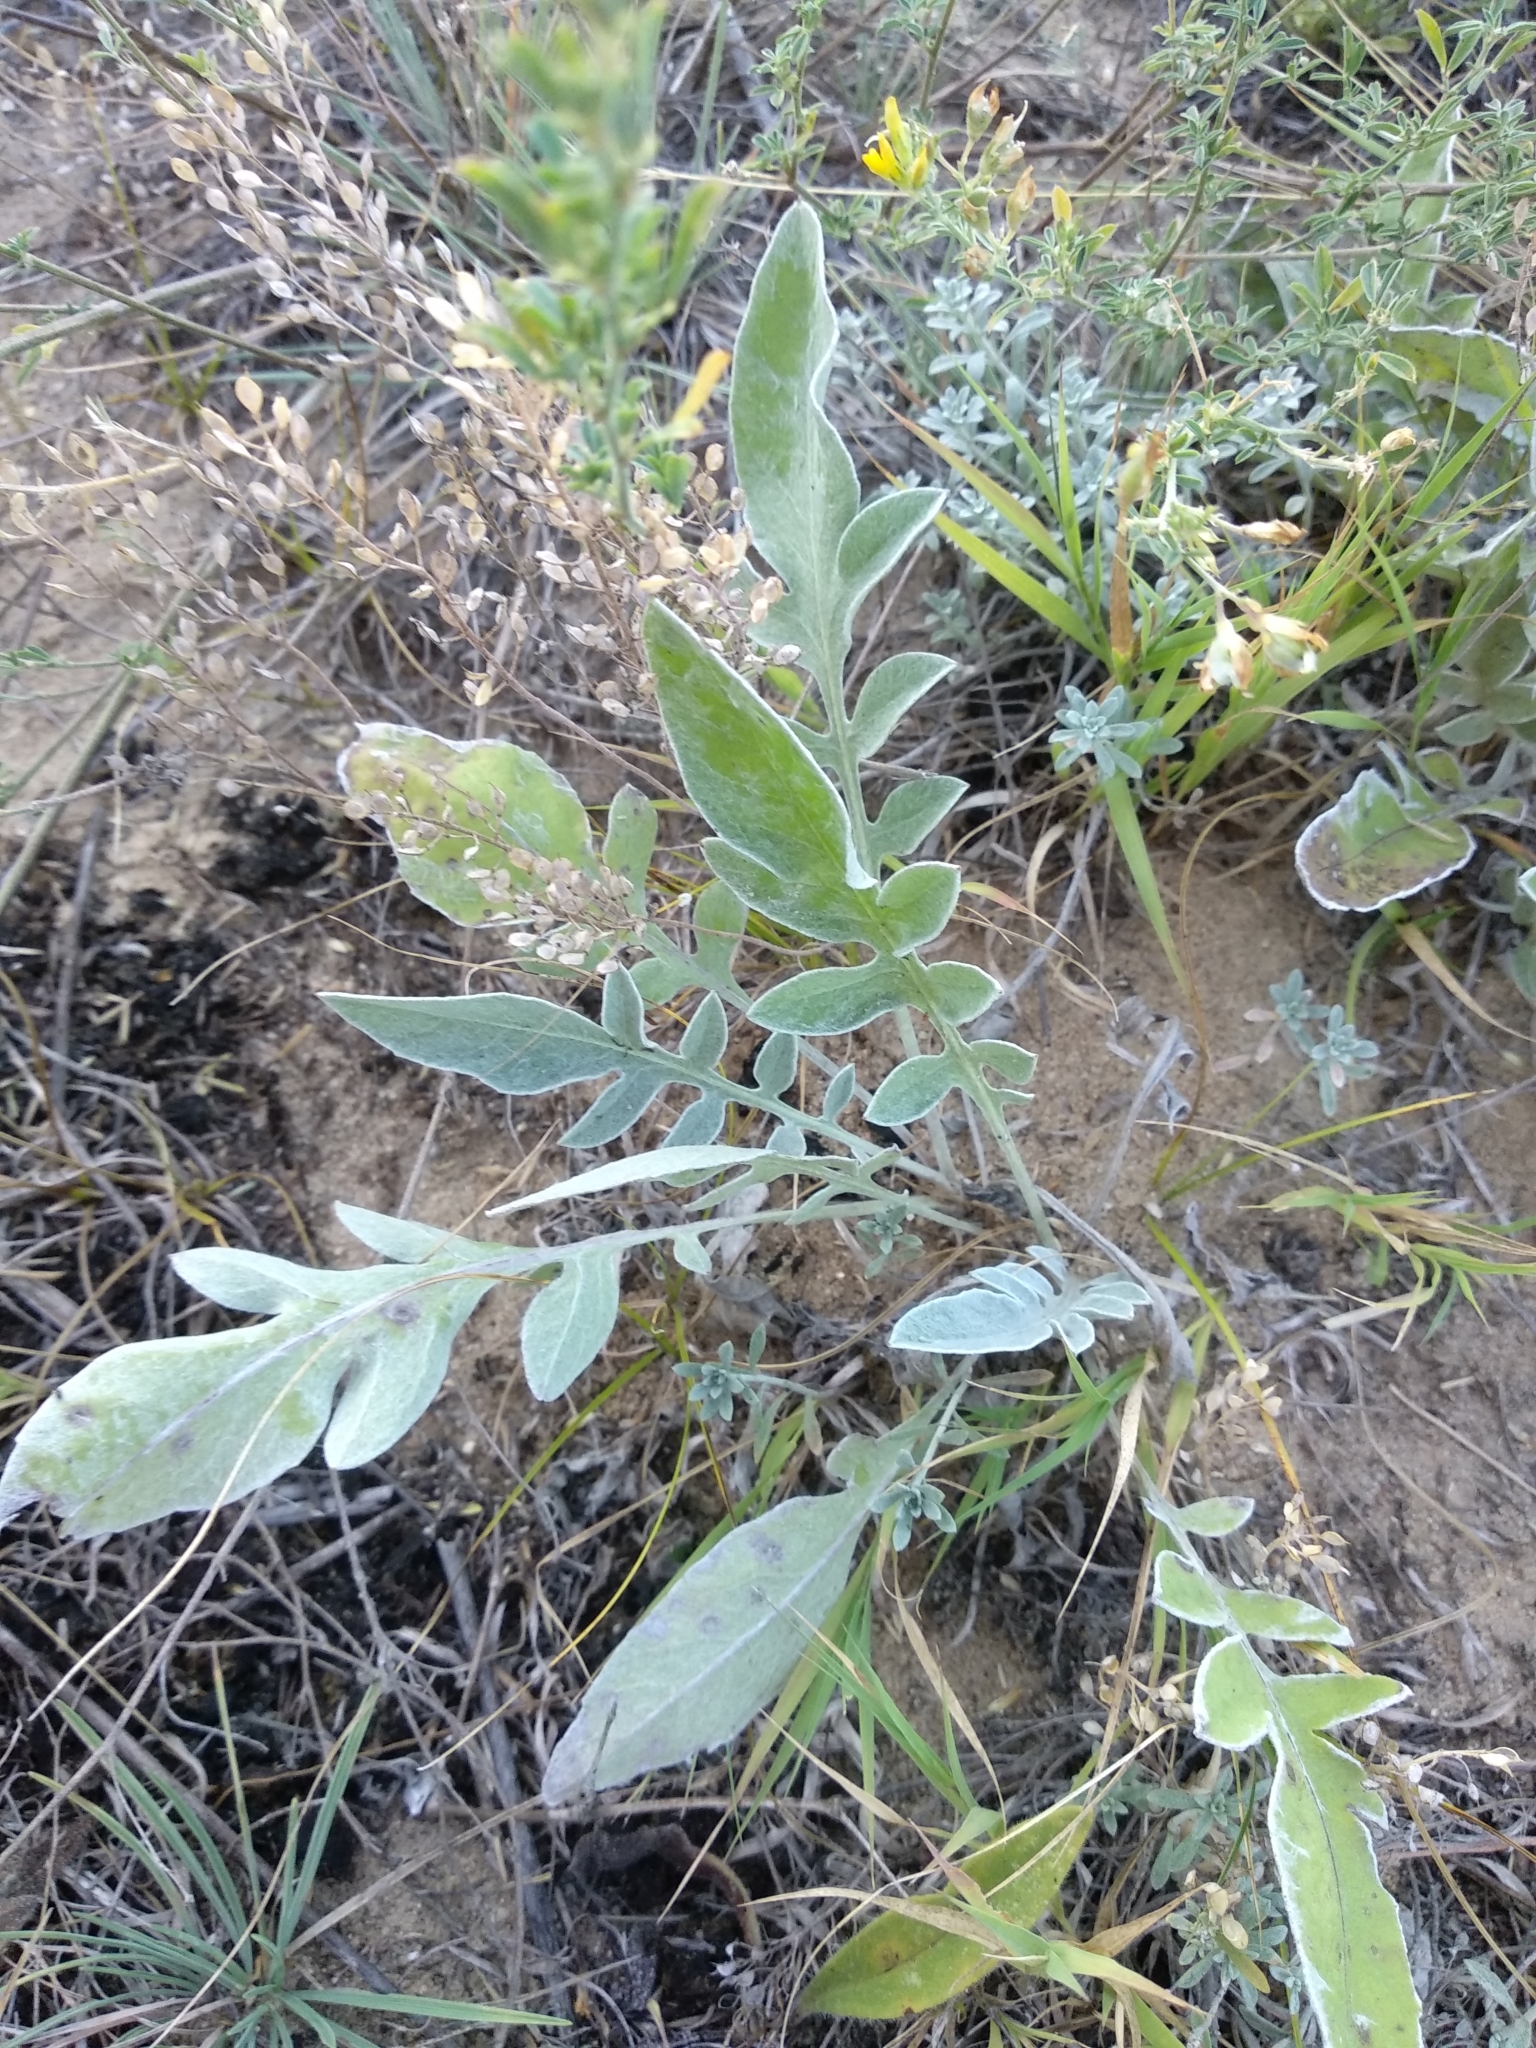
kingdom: Plantae
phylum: Tracheophyta
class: Magnoliopsida
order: Asterales
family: Asteraceae
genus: Psephellus
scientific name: Psephellus turgaicus
